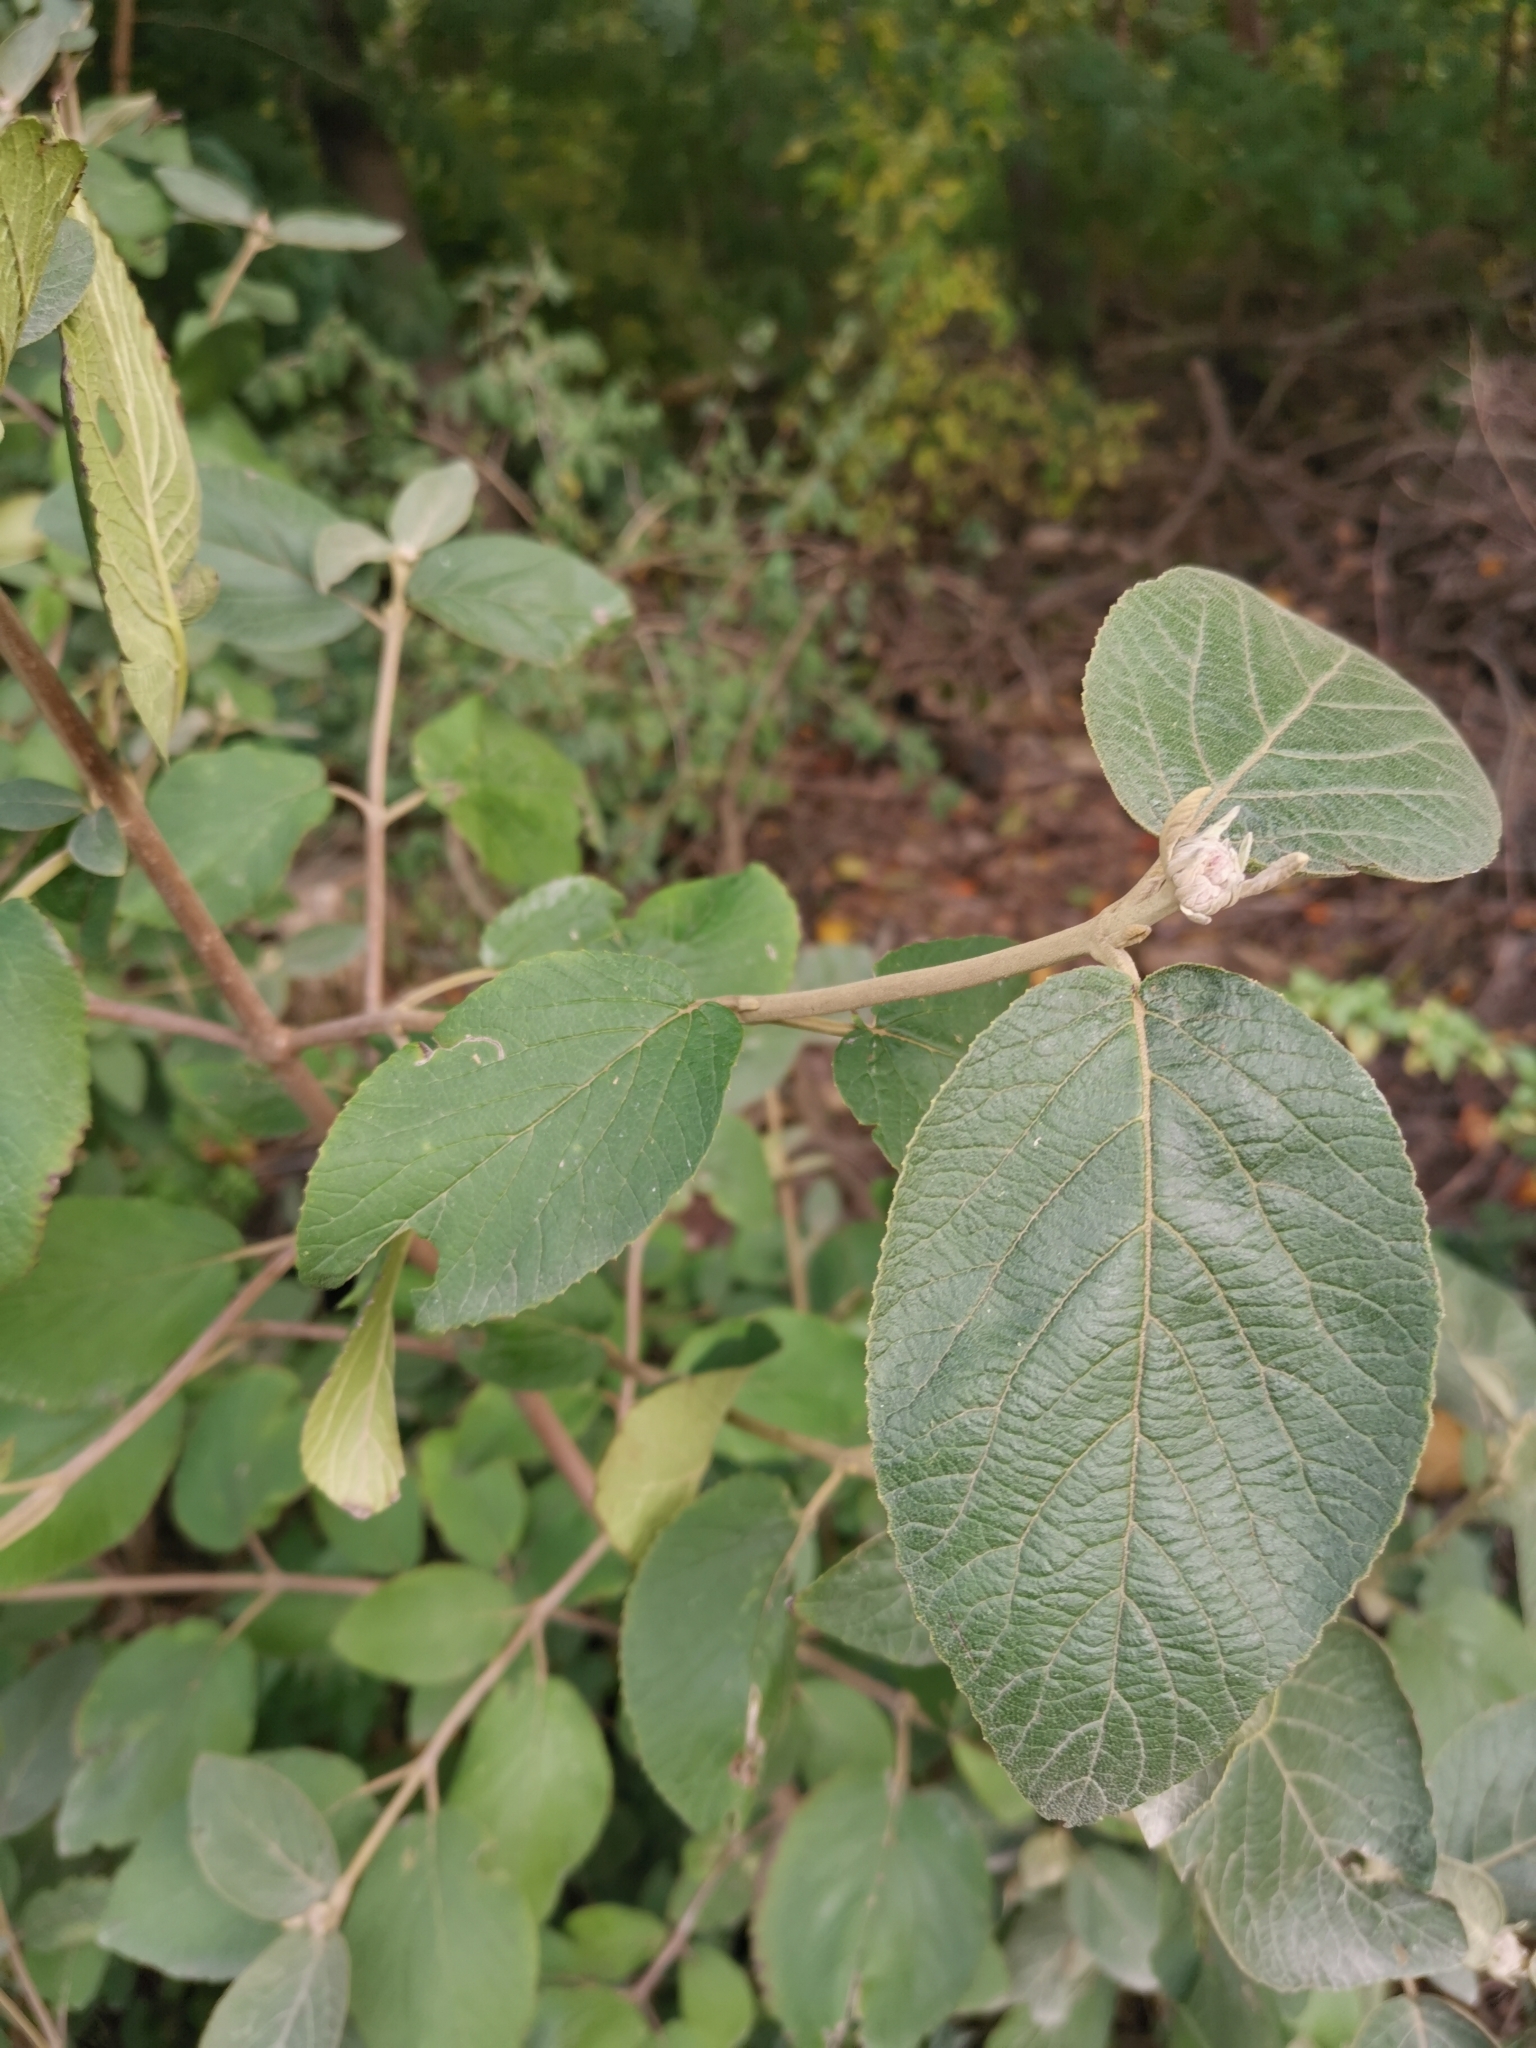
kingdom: Plantae
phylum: Tracheophyta
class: Magnoliopsida
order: Dipsacales
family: Viburnaceae
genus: Viburnum
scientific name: Viburnum lantana
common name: Wayfaring tree
